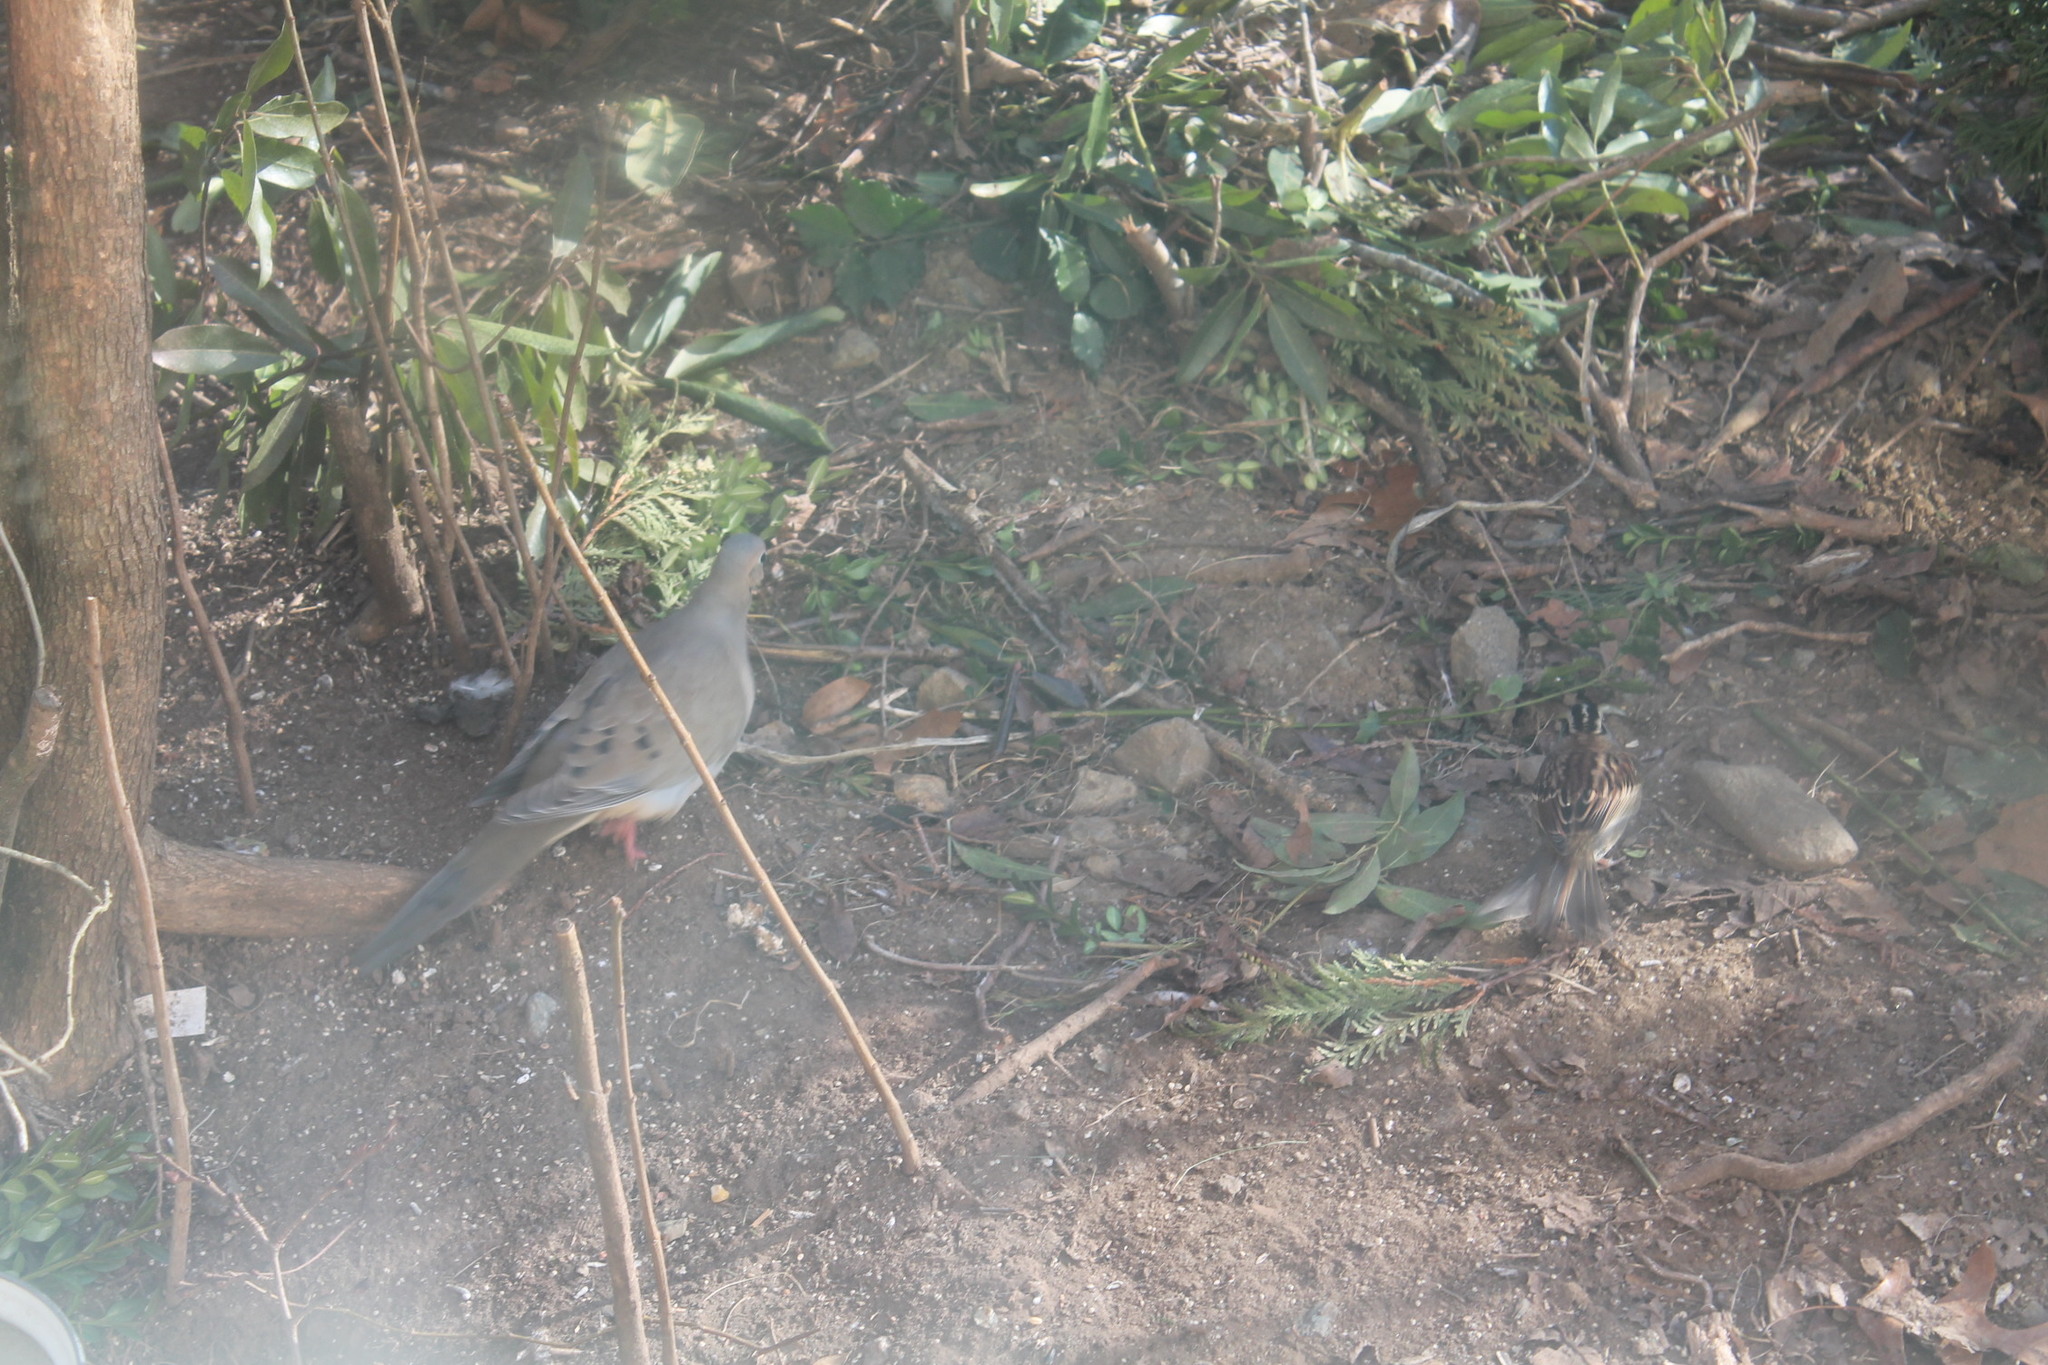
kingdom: Animalia
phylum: Chordata
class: Aves
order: Columbiformes
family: Columbidae
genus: Zenaida
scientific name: Zenaida macroura
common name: Mourning dove
